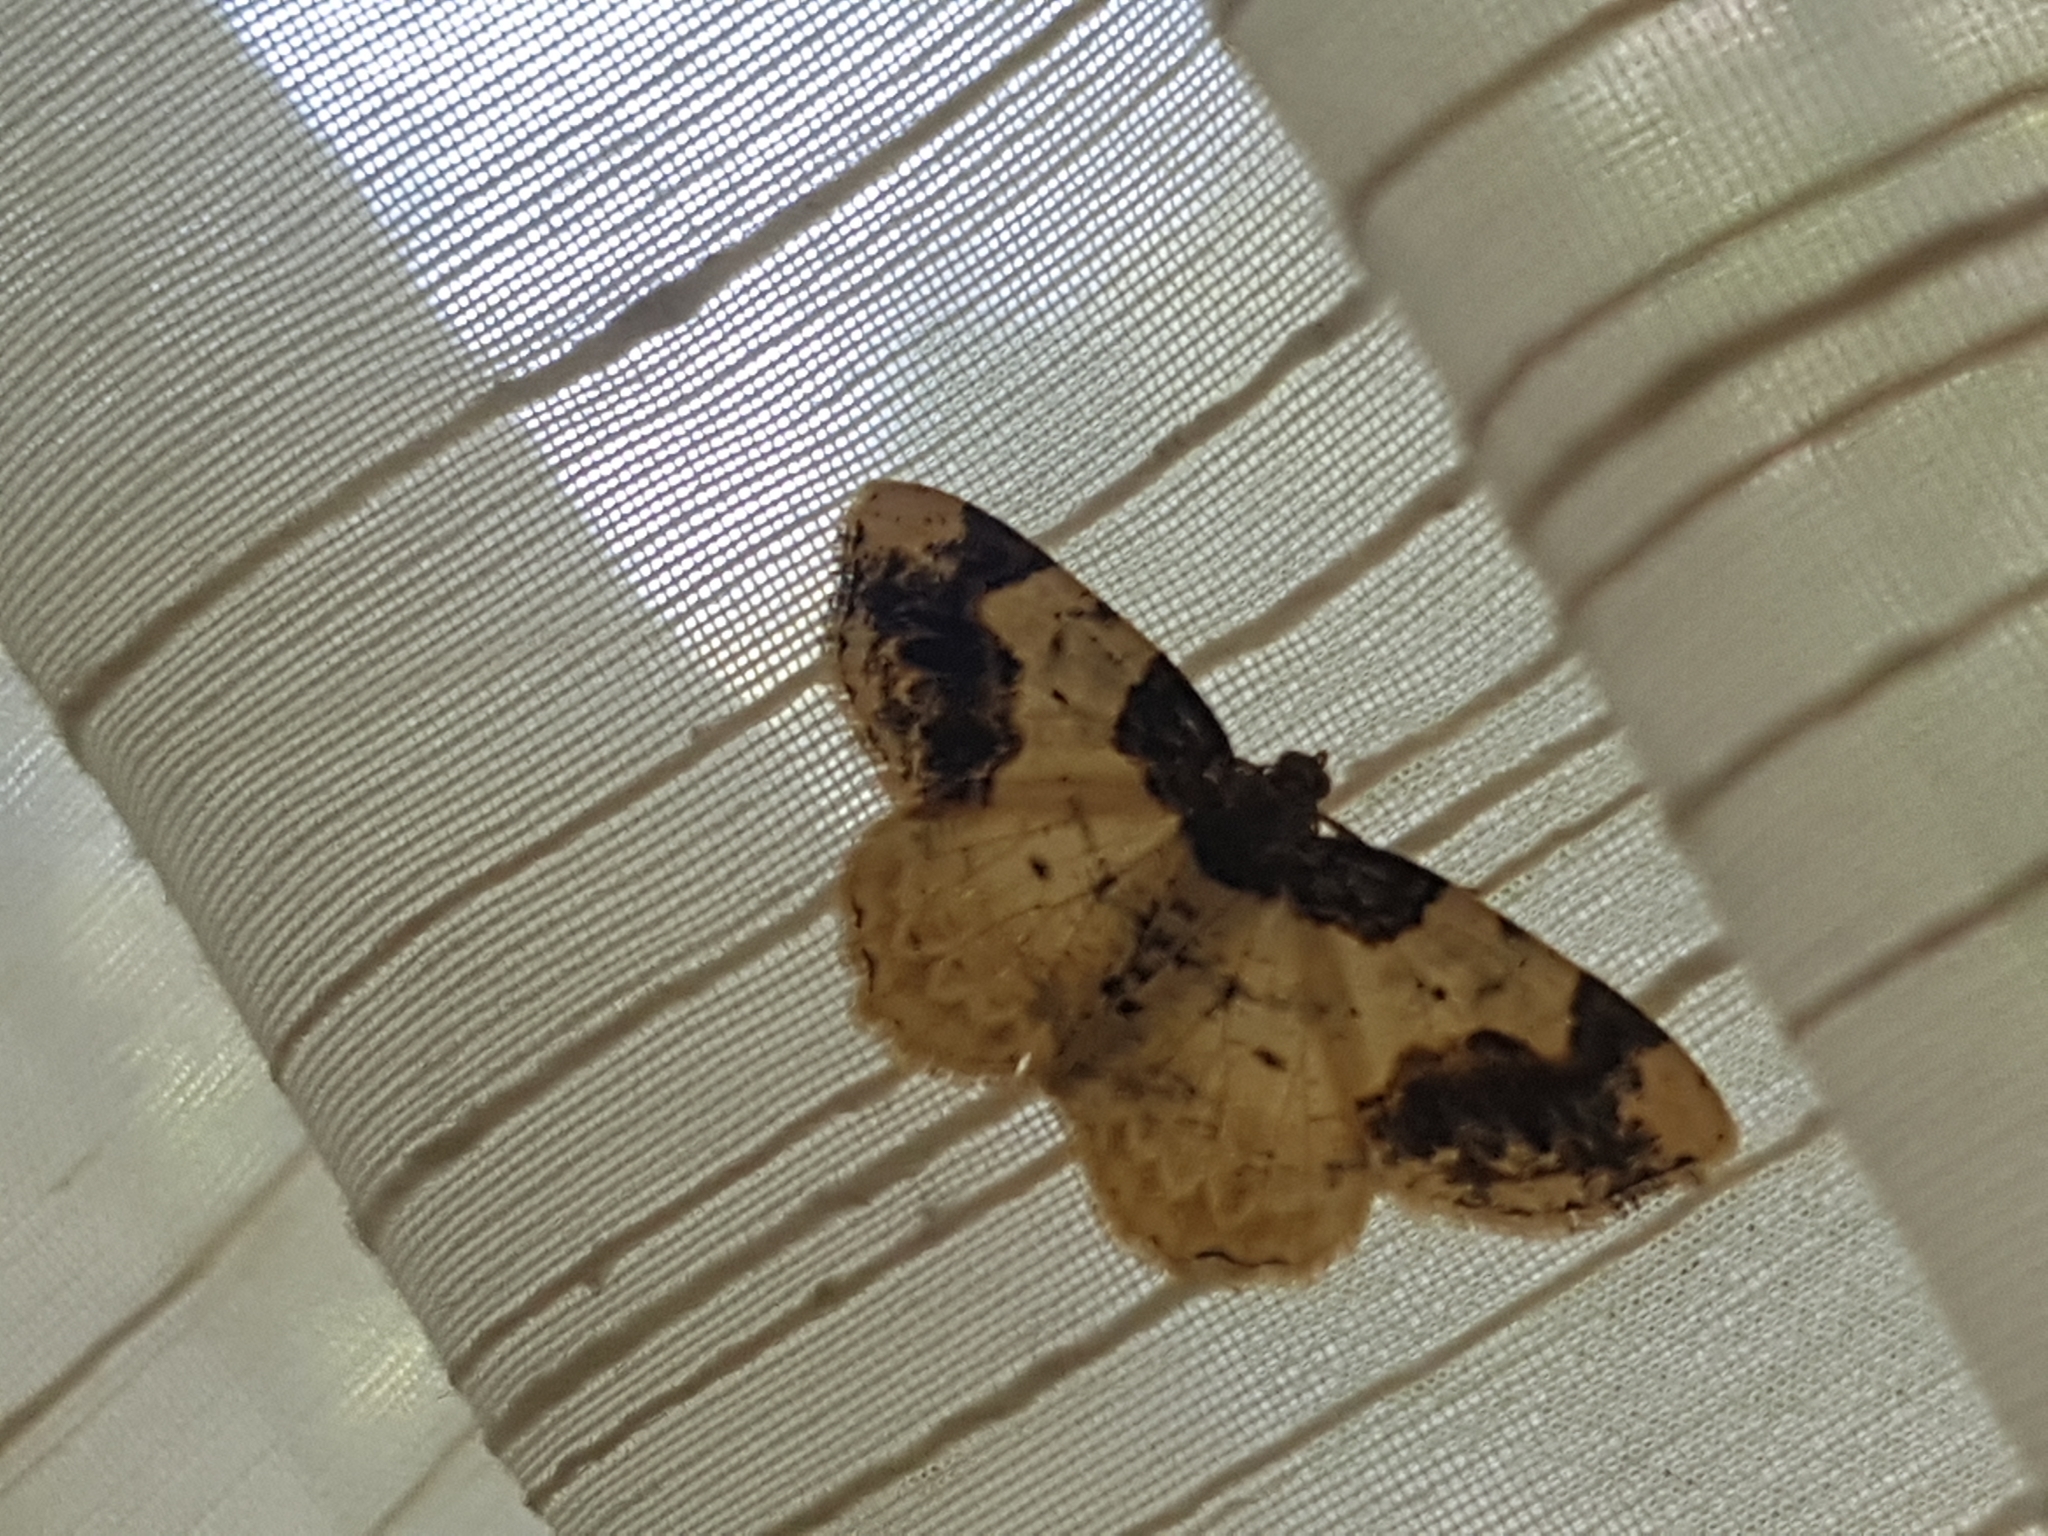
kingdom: Animalia
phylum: Arthropoda
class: Insecta
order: Lepidoptera
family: Geometridae
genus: Ligdia
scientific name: Ligdia adustata
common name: Scorched carpet
